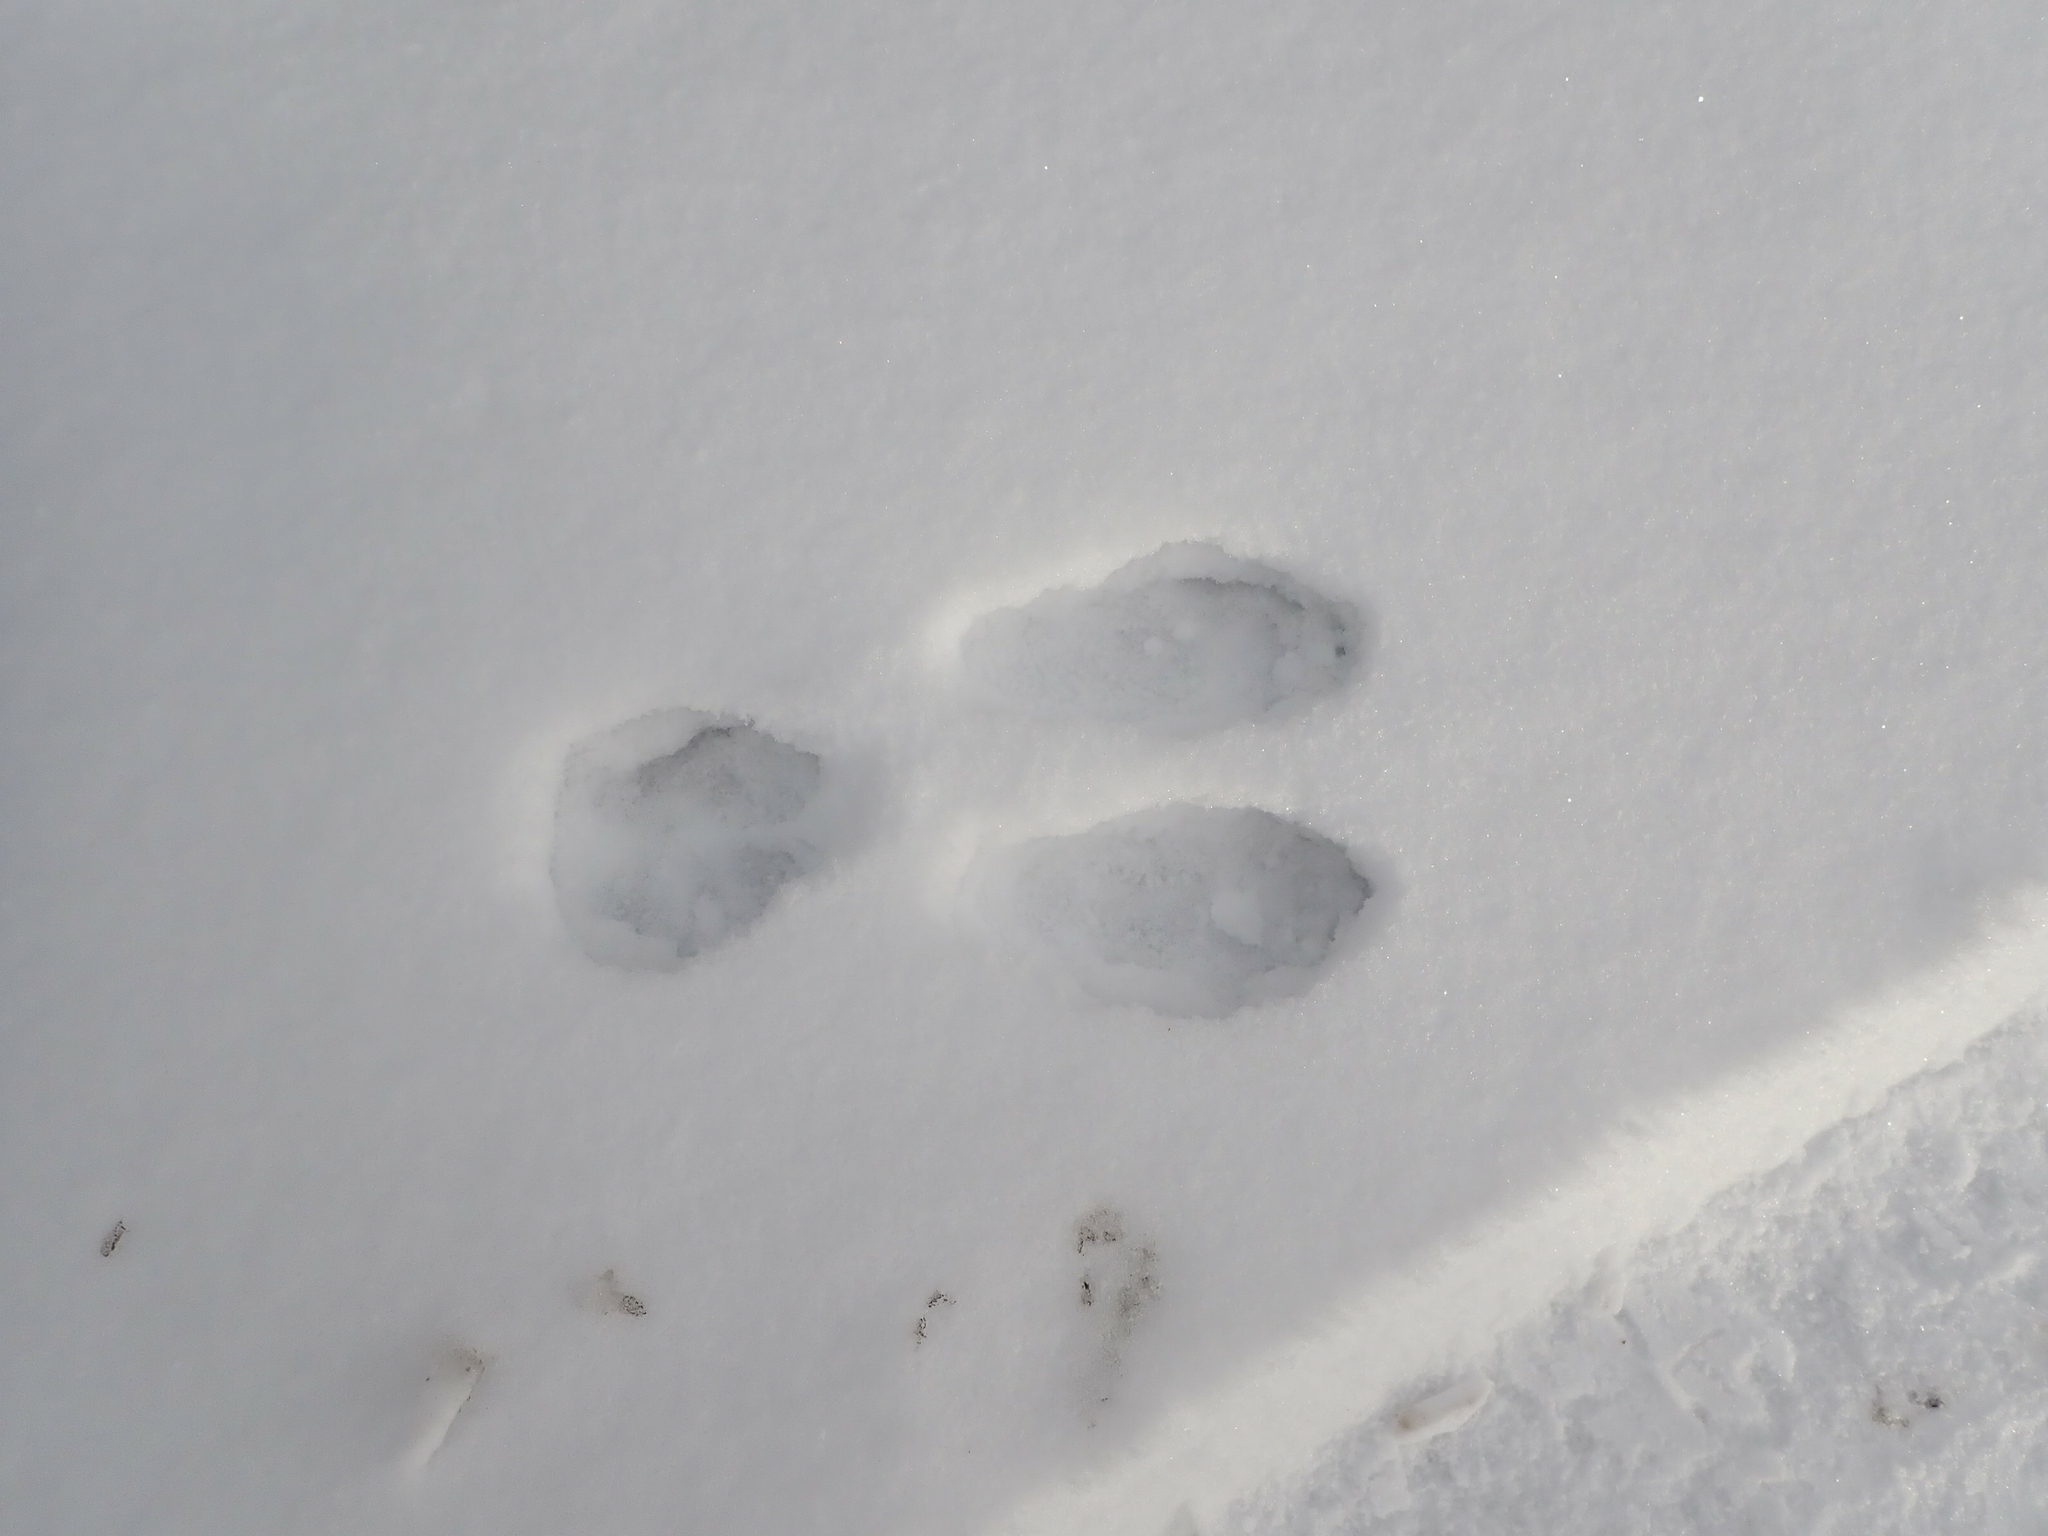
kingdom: Animalia
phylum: Chordata
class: Mammalia
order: Lagomorpha
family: Leporidae
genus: Lepus
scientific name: Lepus americanus
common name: Snowshoe hare
